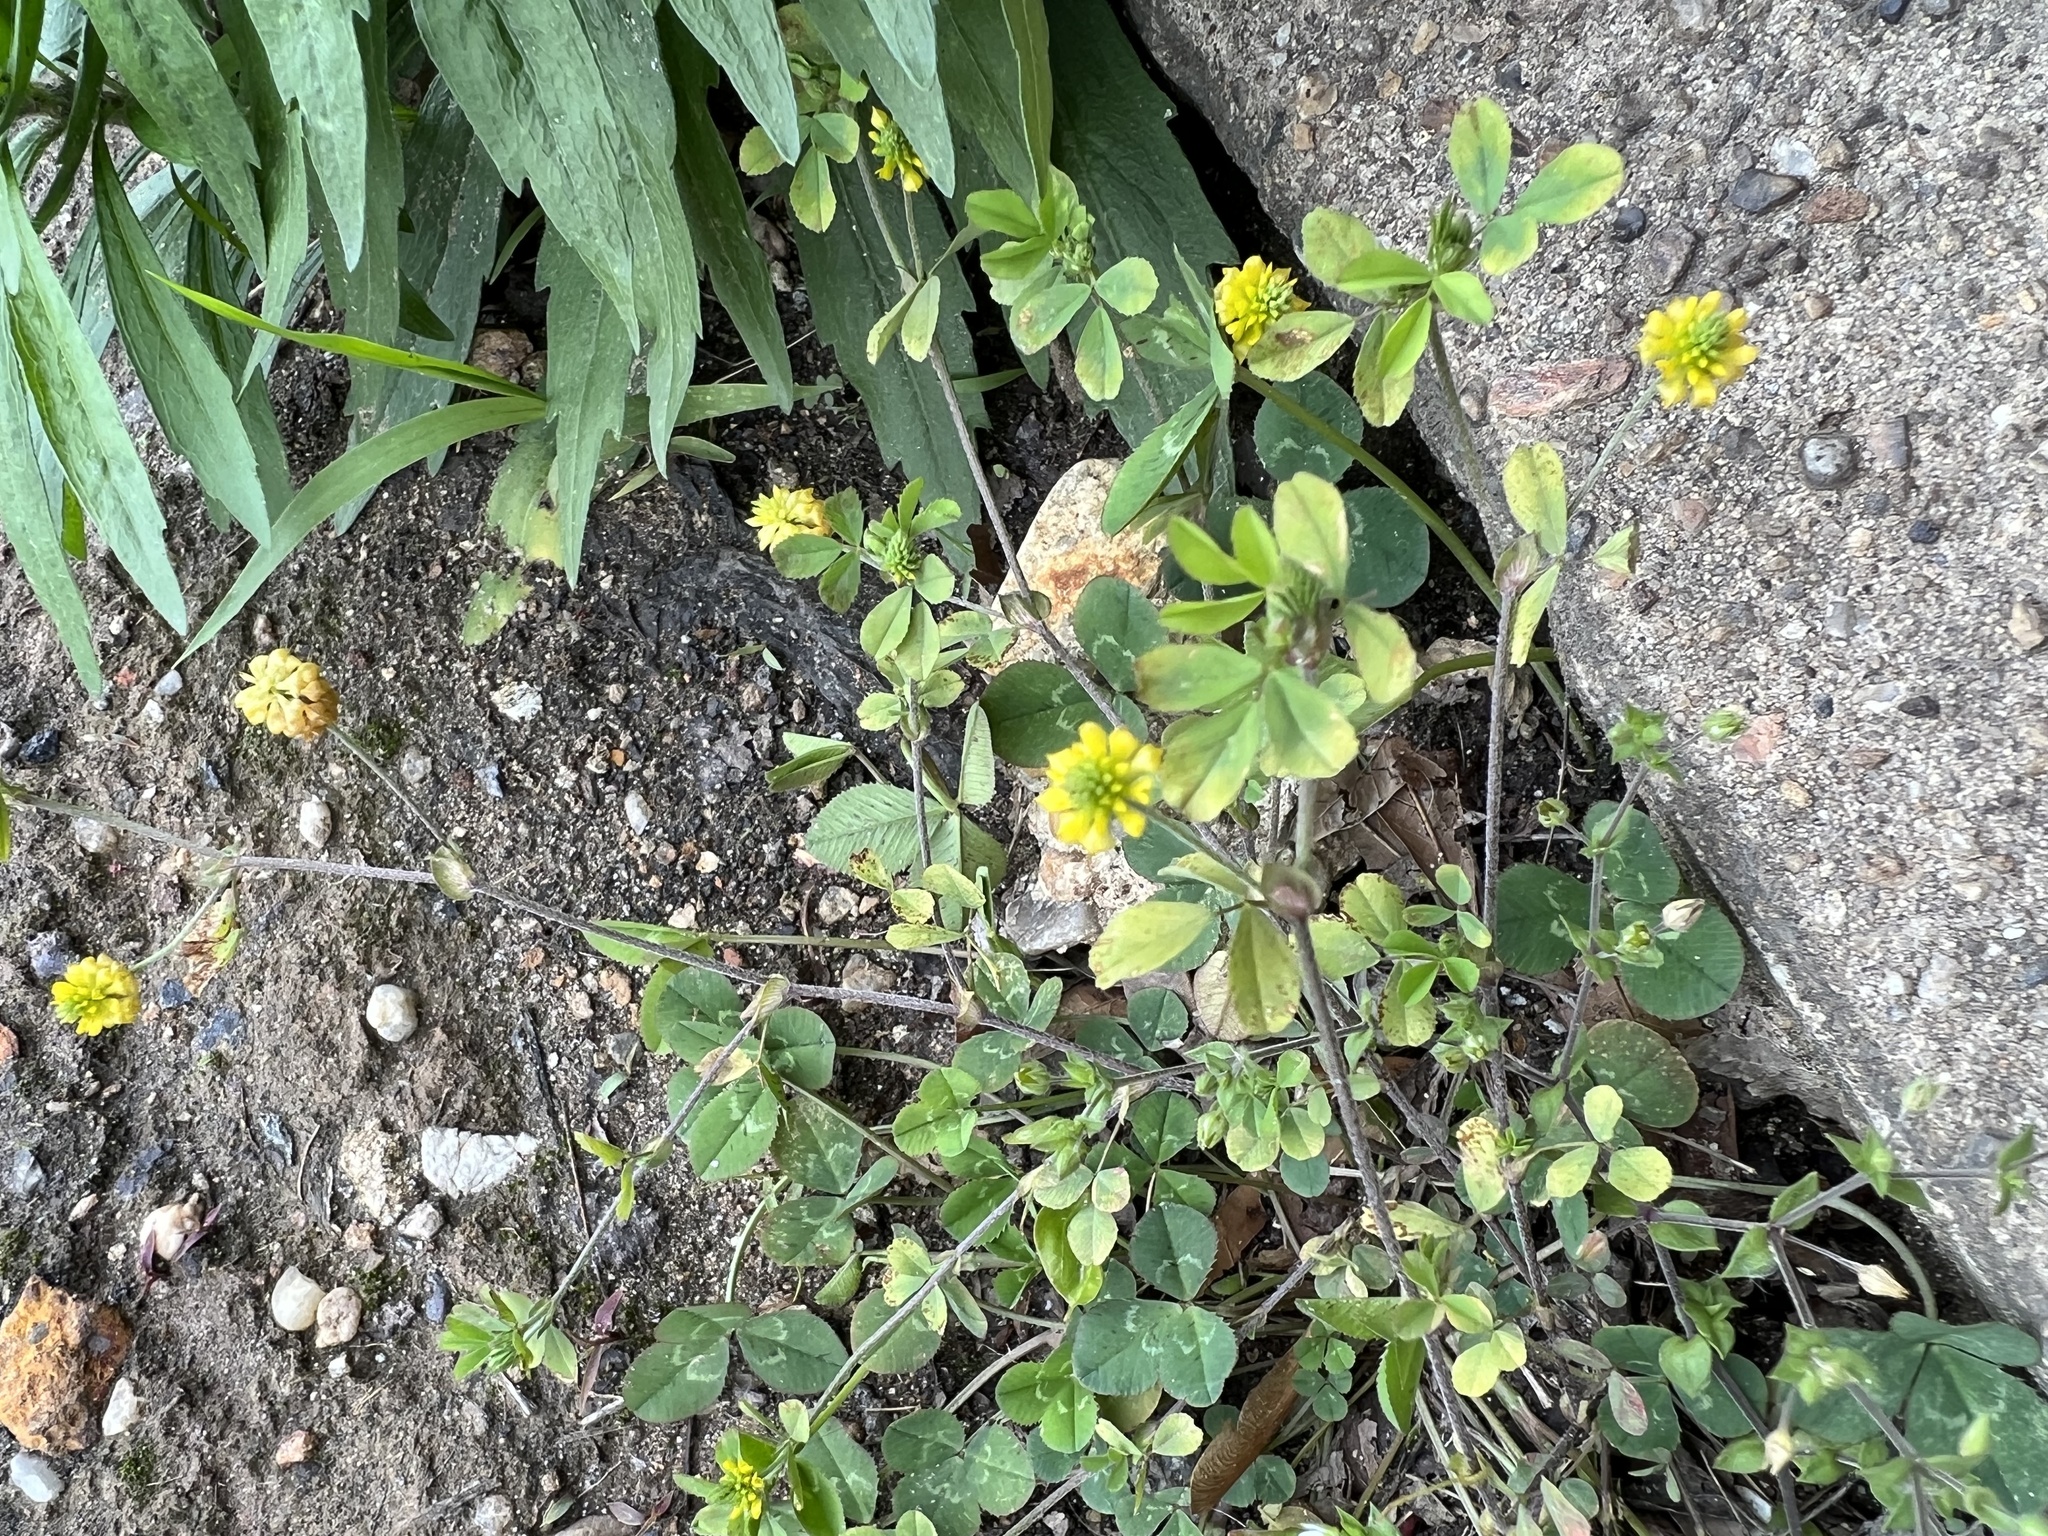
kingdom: Plantae
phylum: Tracheophyta
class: Magnoliopsida
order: Fabales
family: Fabaceae
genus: Trifolium
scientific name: Trifolium campestre
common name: Field clover
